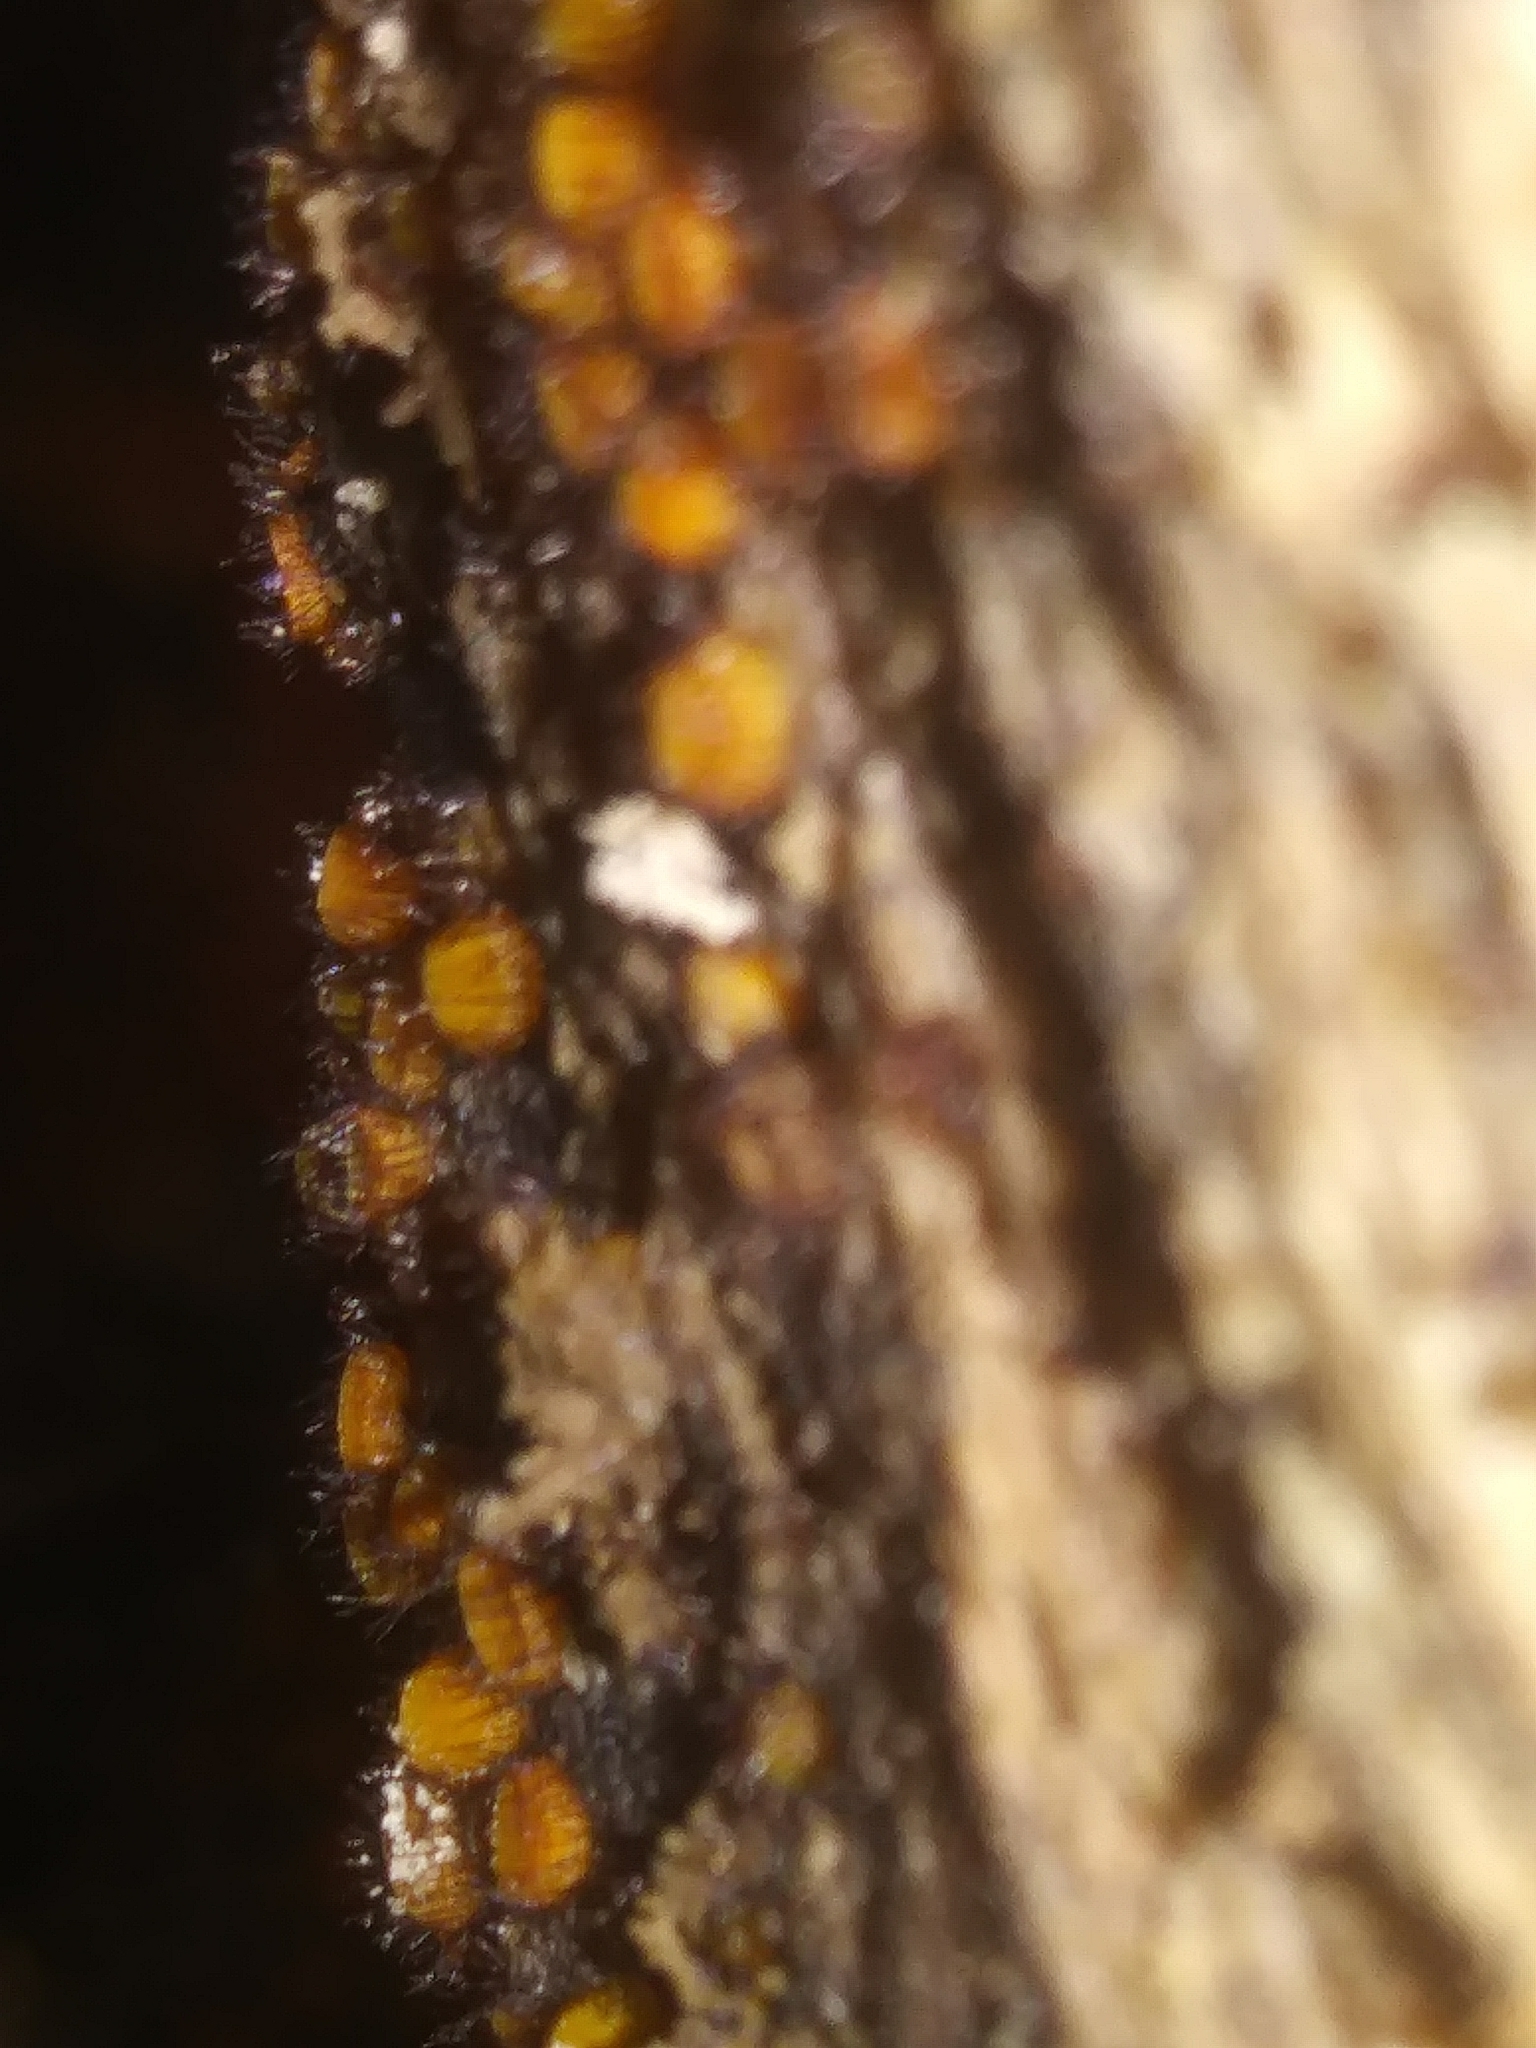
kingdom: Fungi
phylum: Ascomycota
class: Pezizomycetes
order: Pezizales
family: Pyronemataceae
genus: Scutellinia
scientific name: Scutellinia setosa
